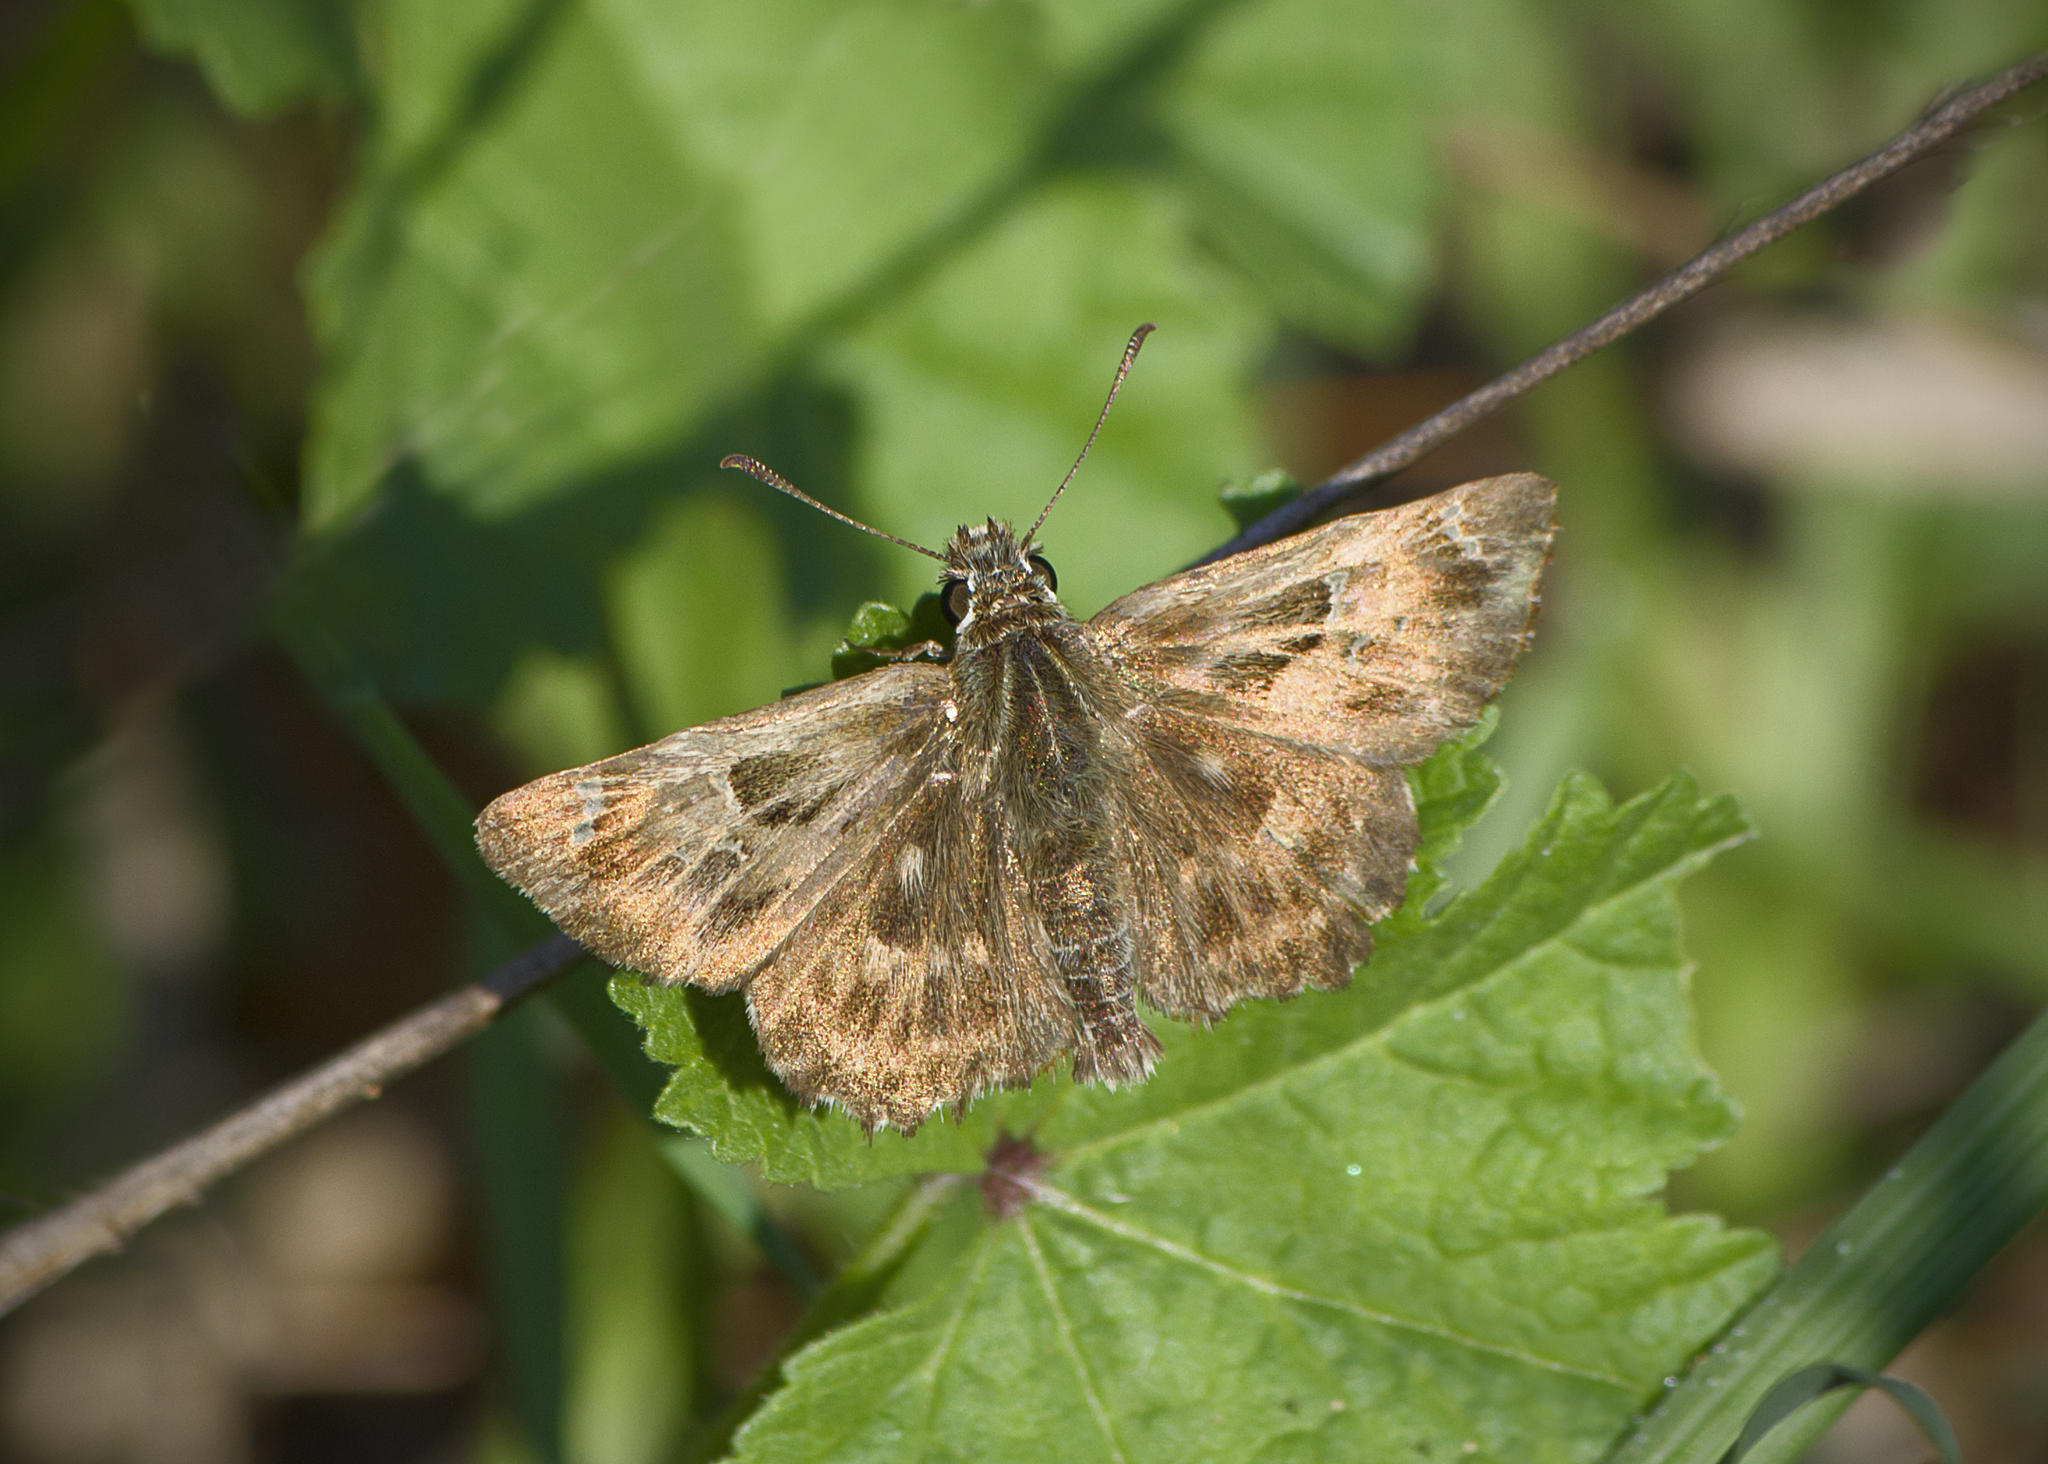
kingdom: Animalia
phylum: Arthropoda
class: Insecta
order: Lepidoptera
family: Hesperiidae
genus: Carcharodus
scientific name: Carcharodus alceae
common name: Mallow skipper
